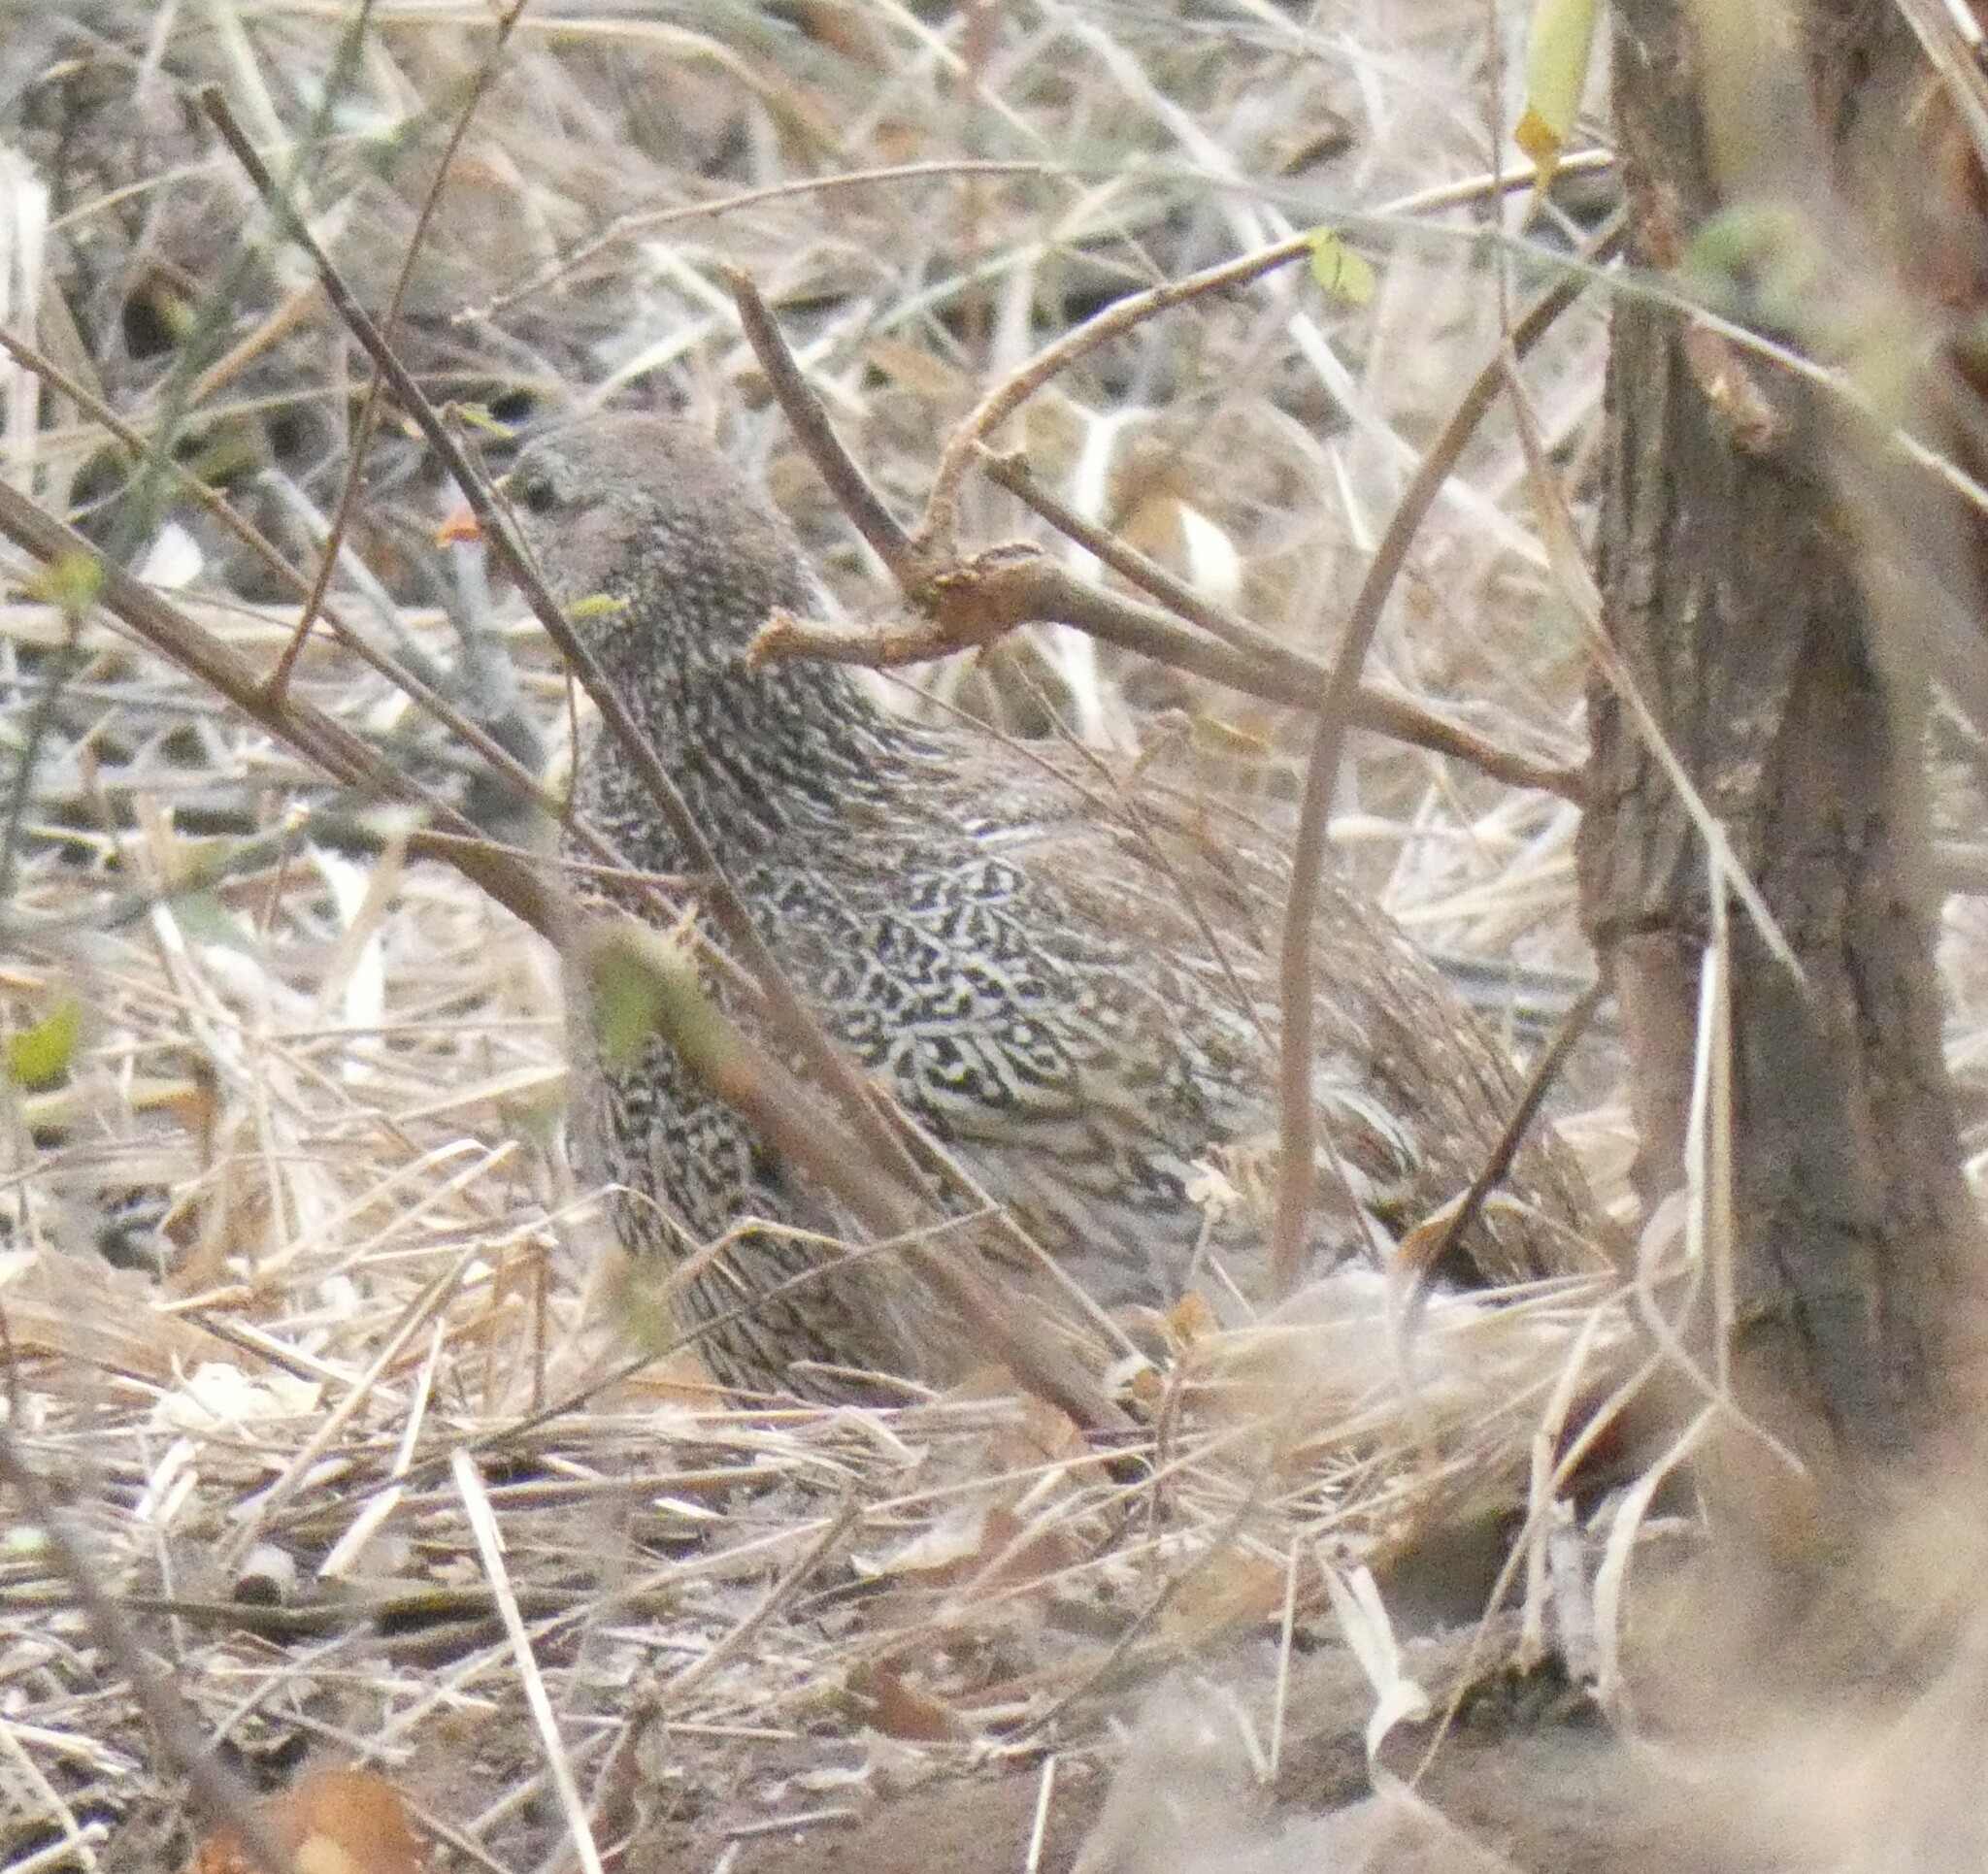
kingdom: Animalia
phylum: Chordata
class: Aves
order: Galliformes
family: Phasianidae
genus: Pternistis
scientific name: Pternistis natalensis
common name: Natal spurfowl
